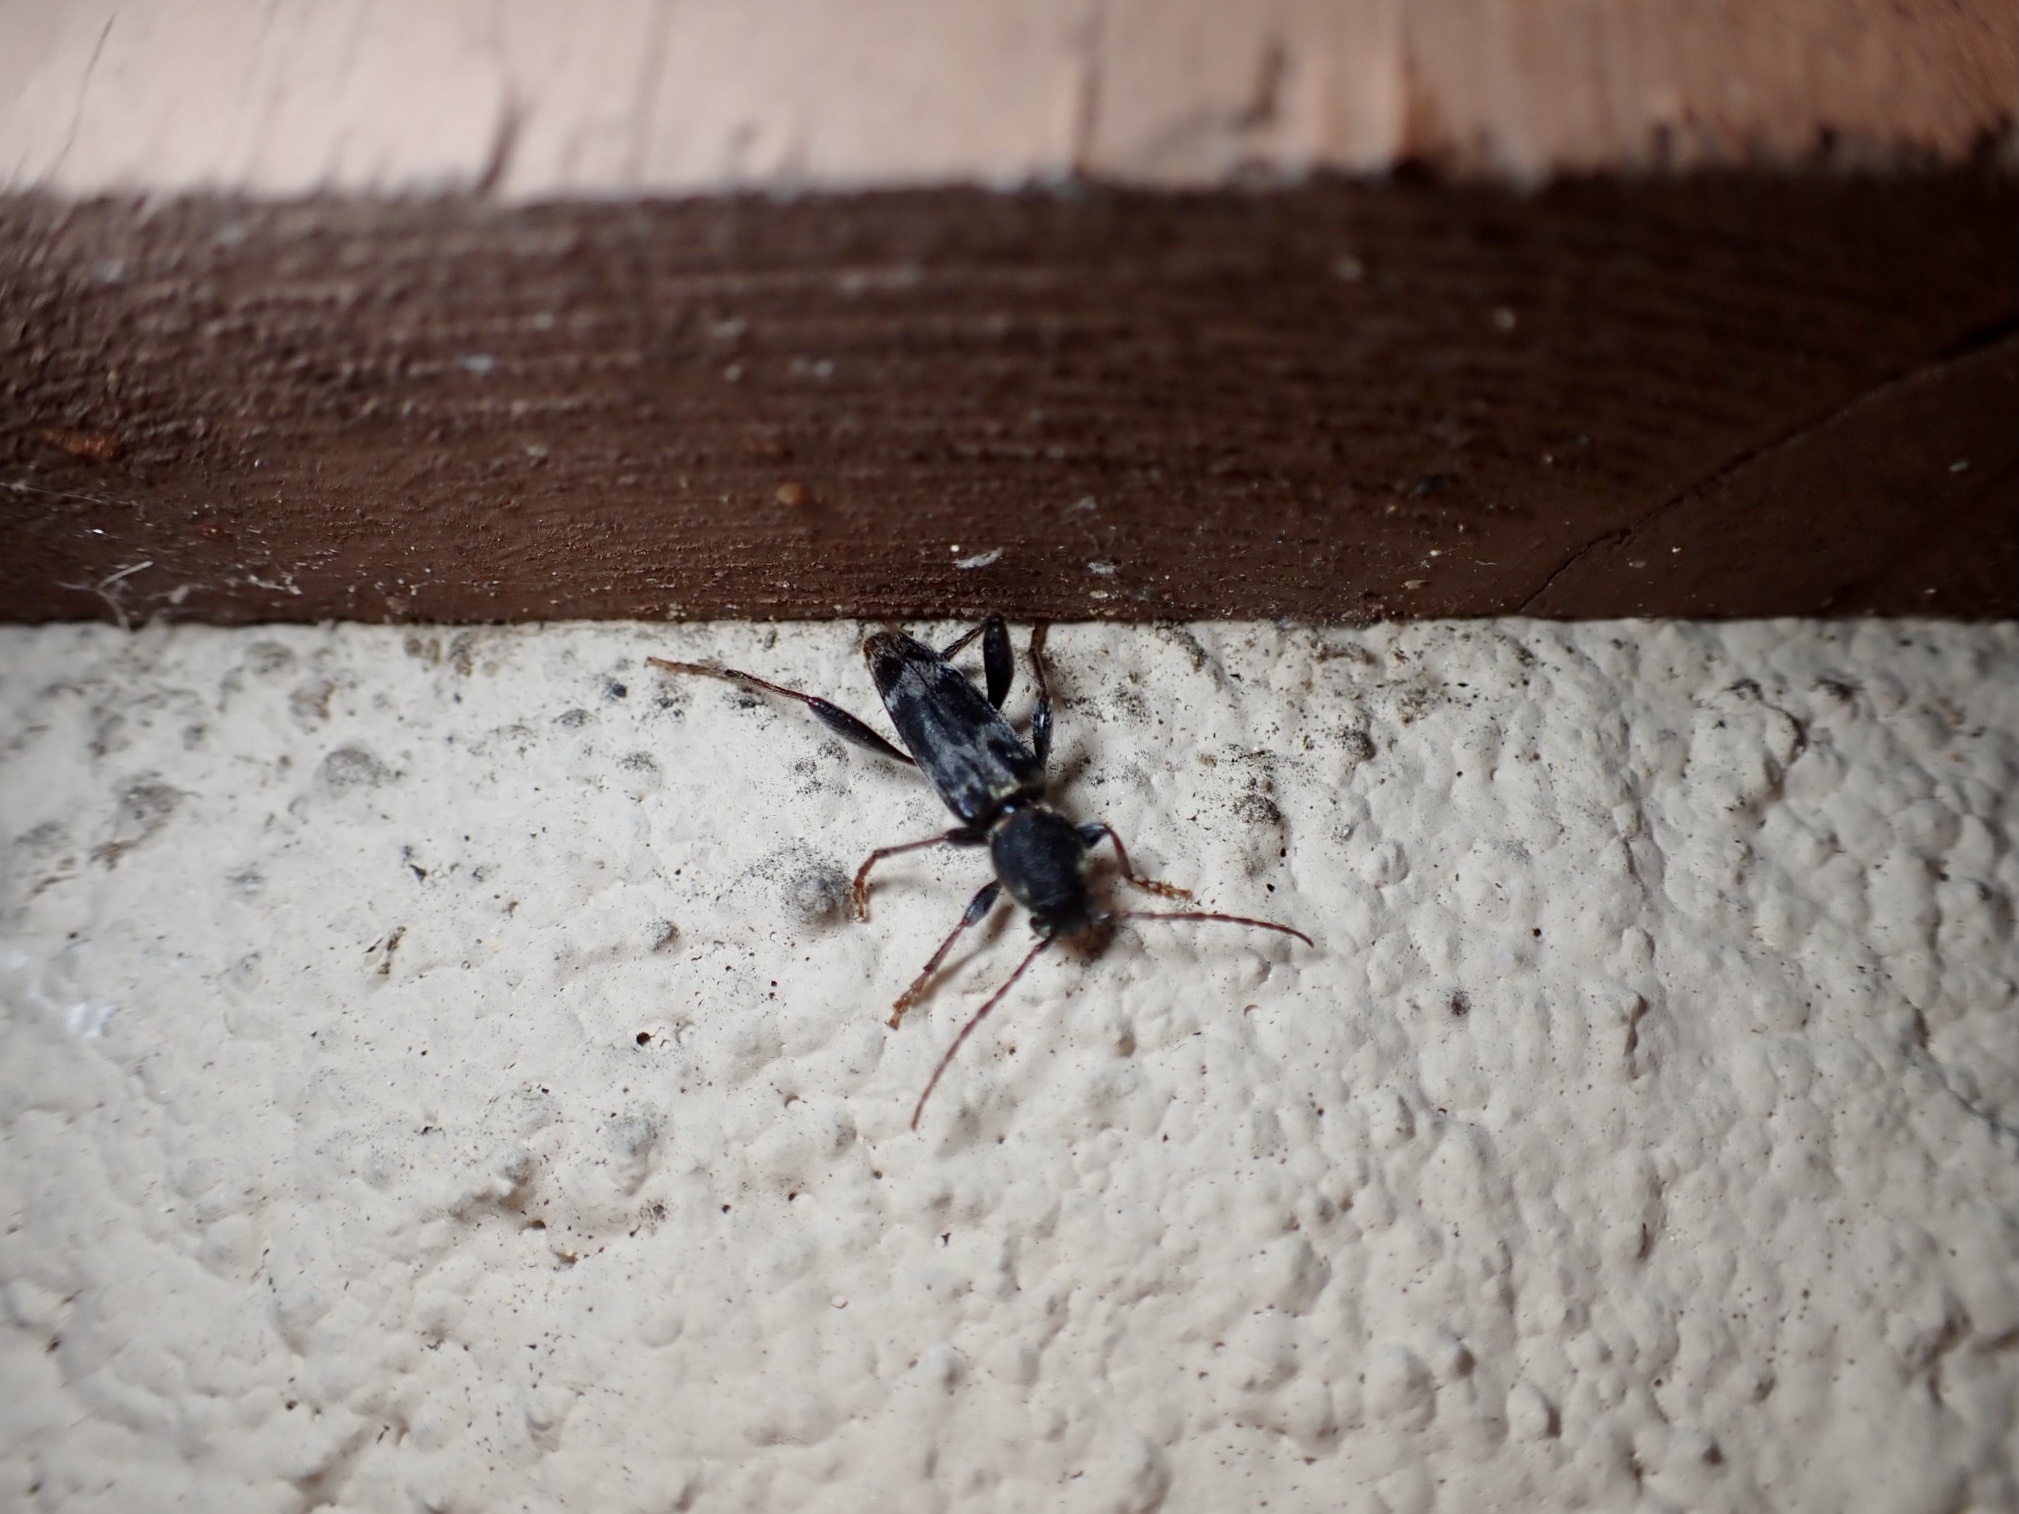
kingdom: Animalia
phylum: Arthropoda
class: Insecta
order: Coleoptera
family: Cerambycidae
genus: Xylotrechus
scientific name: Xylotrechus colonus
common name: Long-horned beetle
